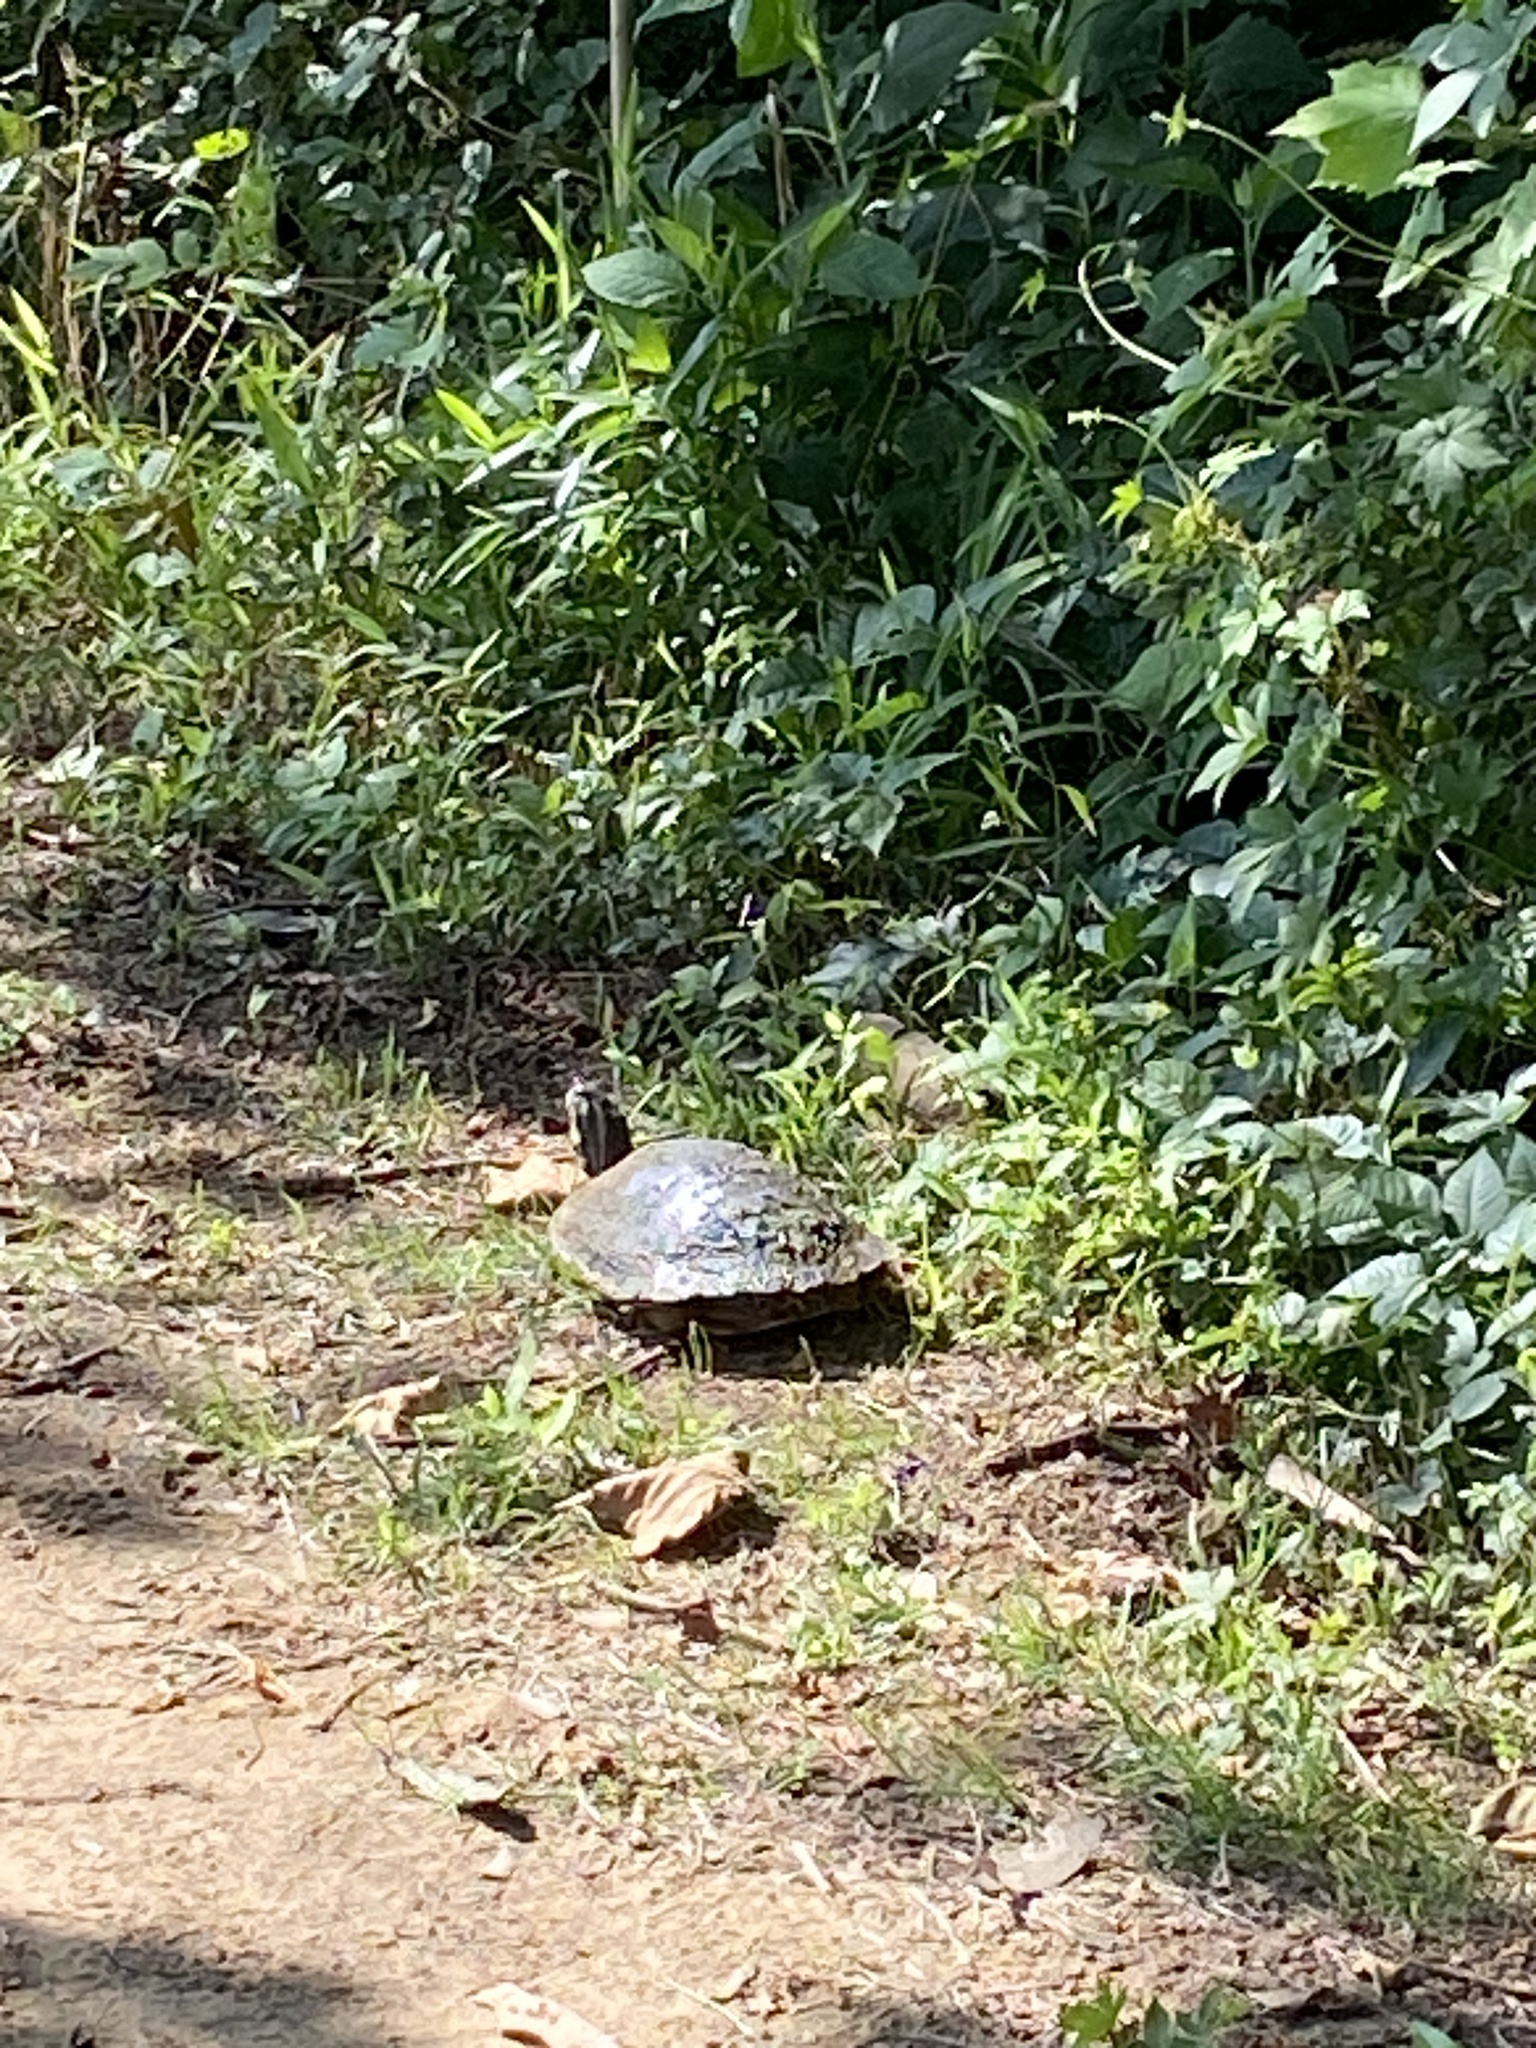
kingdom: Animalia
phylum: Chordata
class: Testudines
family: Emydidae
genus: Pseudemys
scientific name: Pseudemys concinna
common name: Eastern river cooter
